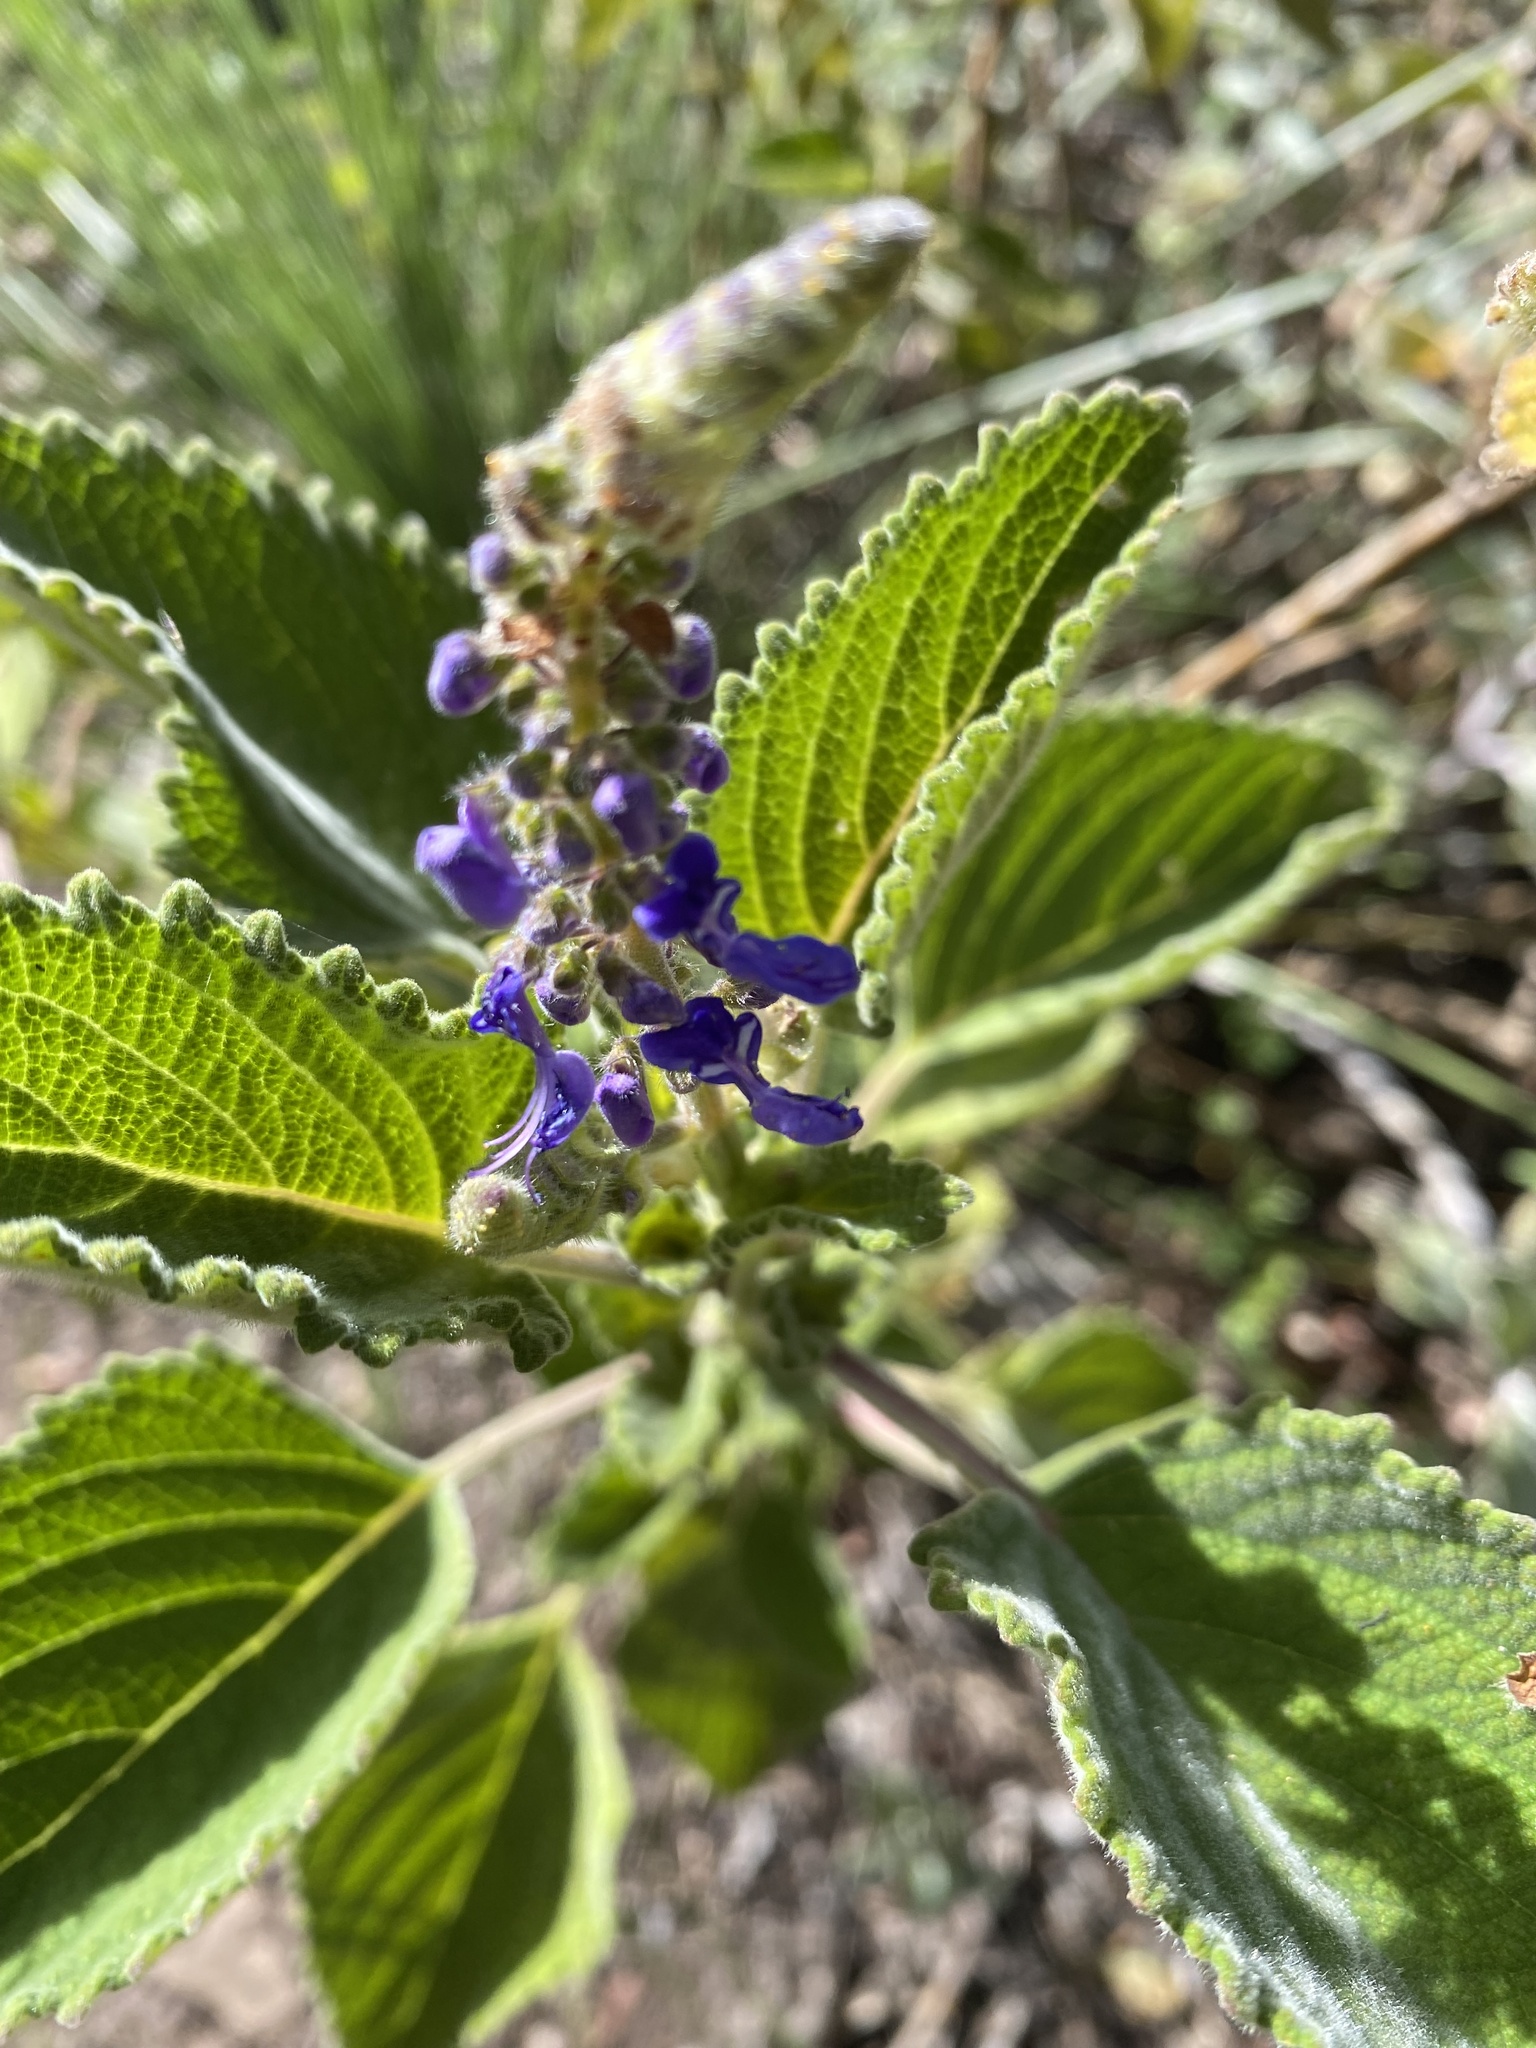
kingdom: Plantae
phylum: Tracheophyta
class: Magnoliopsida
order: Lamiales
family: Lamiaceae
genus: Coleus
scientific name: Coleus graveolens
